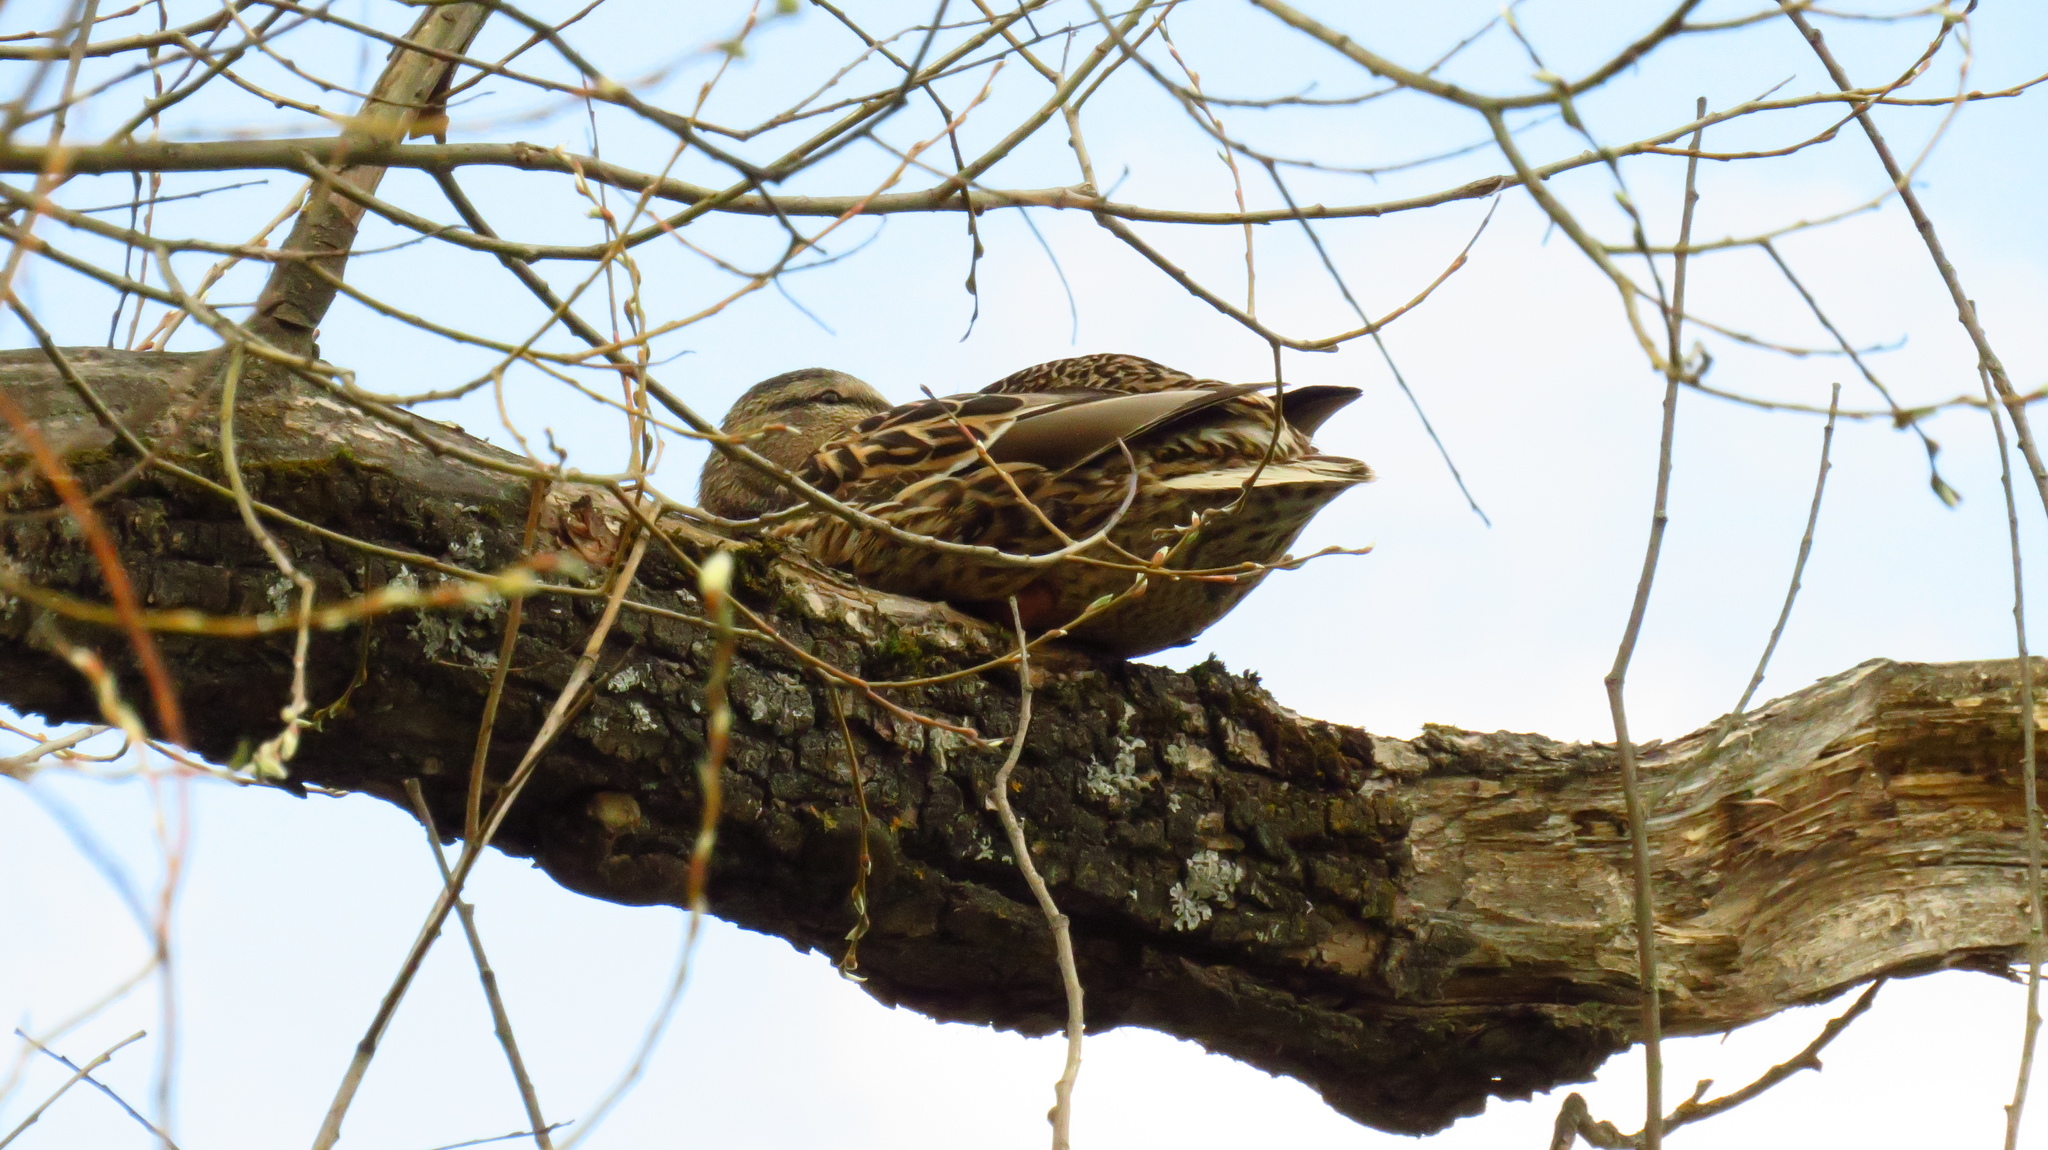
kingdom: Animalia
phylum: Chordata
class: Aves
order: Anseriformes
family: Anatidae
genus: Anas
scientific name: Anas platyrhynchos
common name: Mallard
